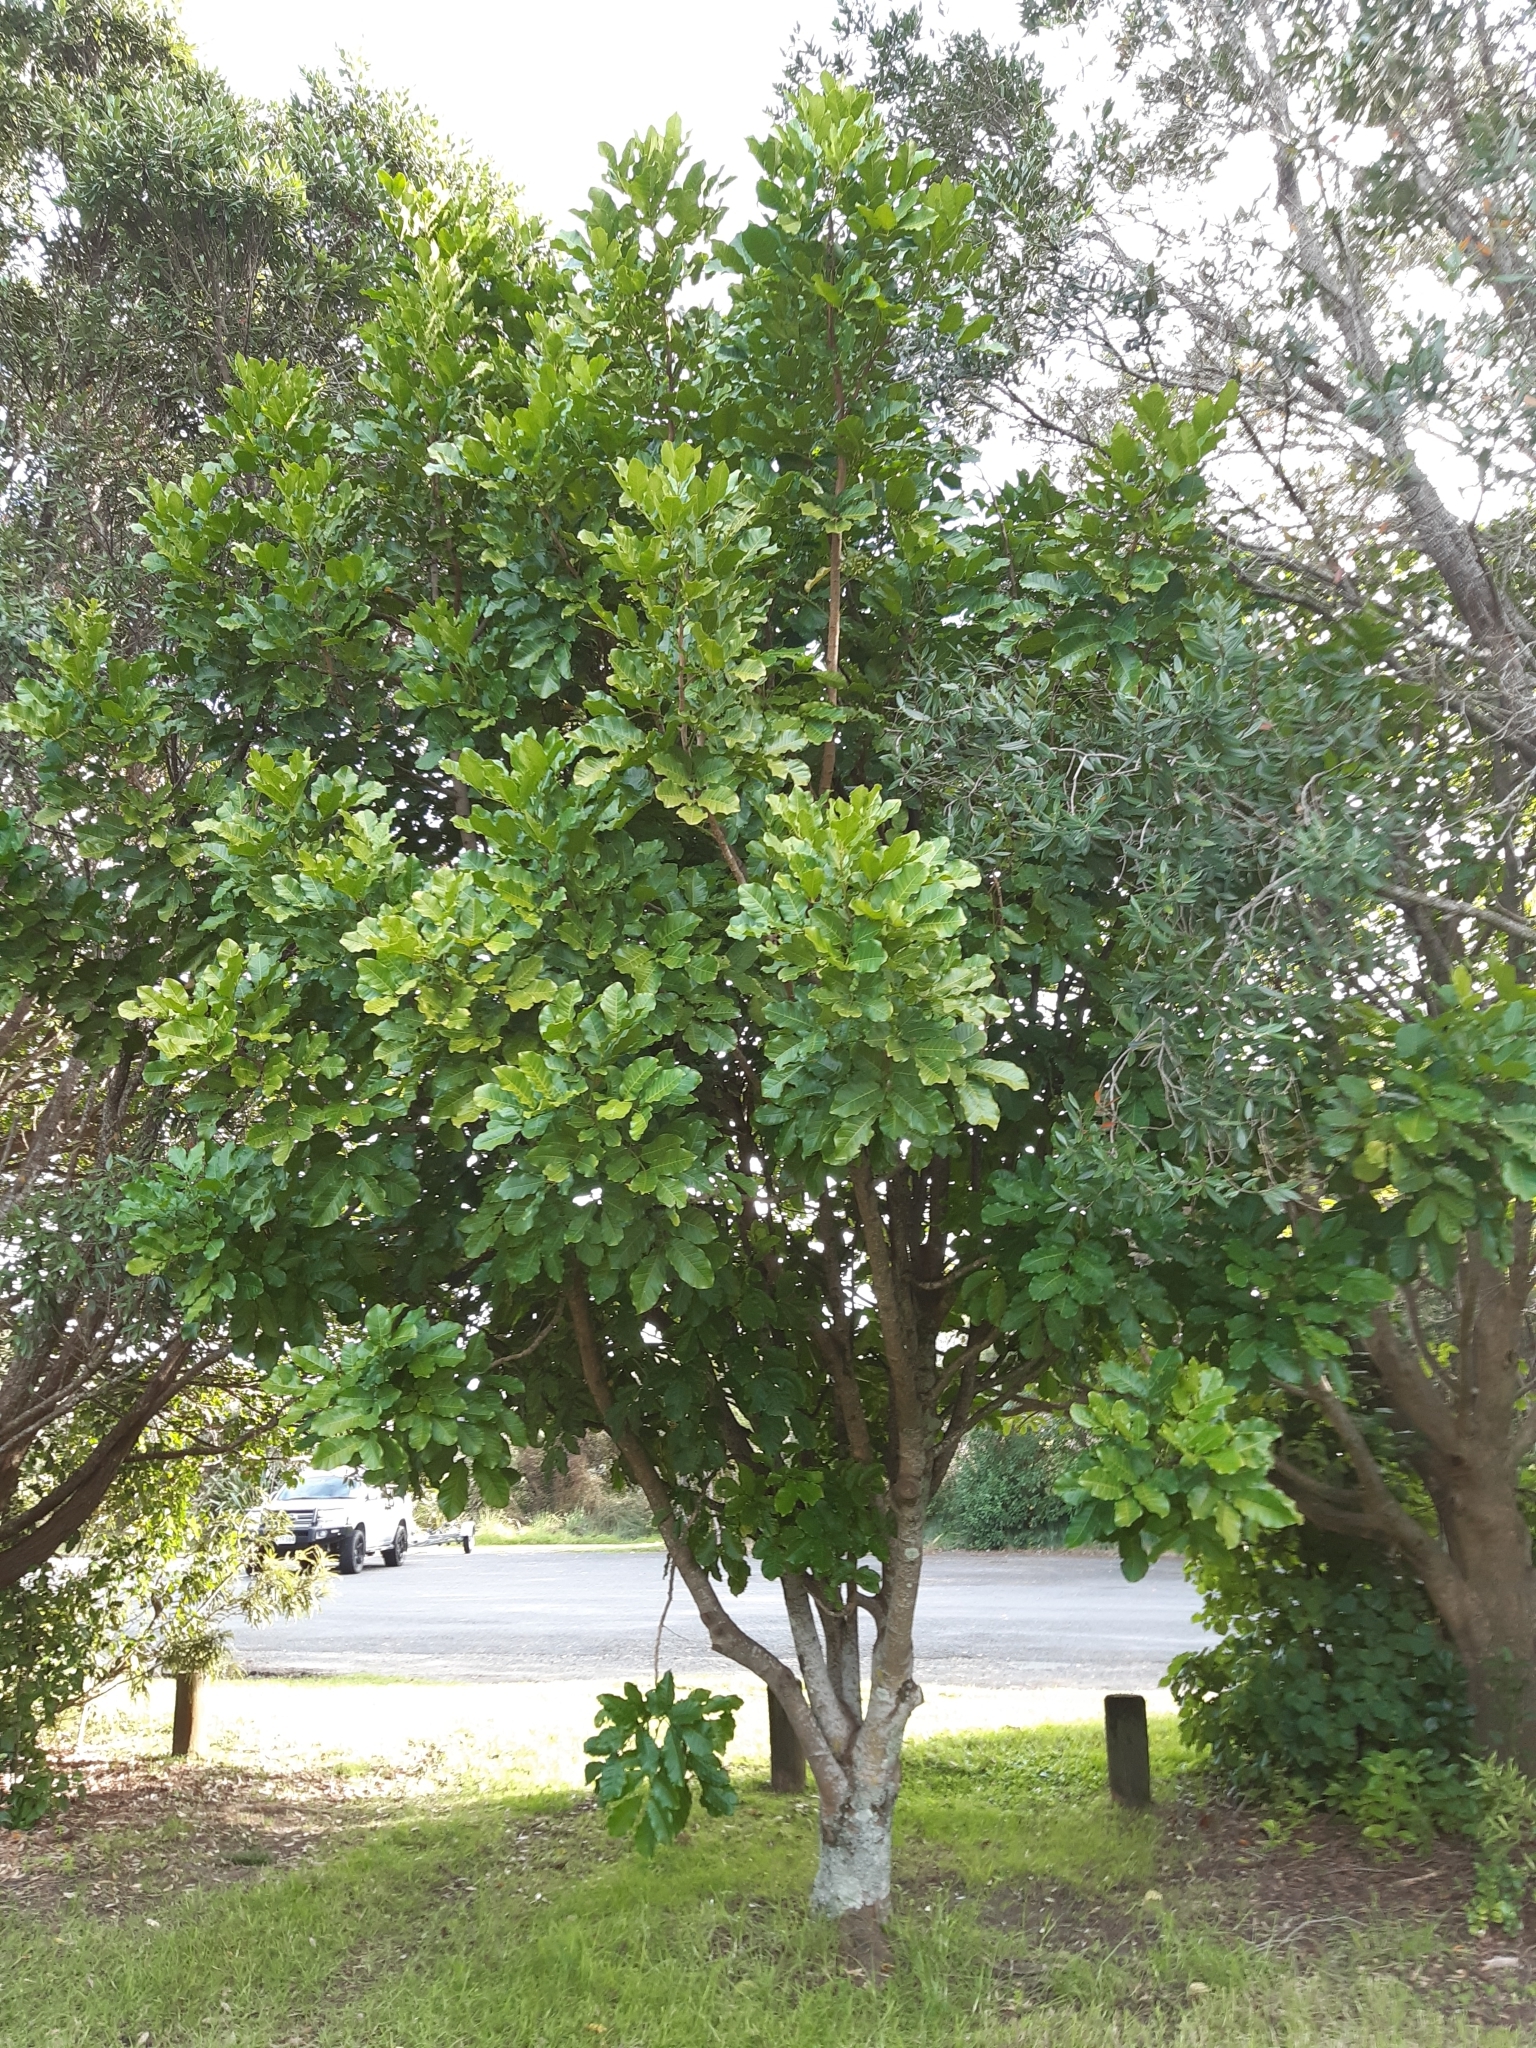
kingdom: Plantae
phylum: Tracheophyta
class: Magnoliopsida
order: Sapindales
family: Meliaceae
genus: Didymocheton
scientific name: Didymocheton spectabilis
